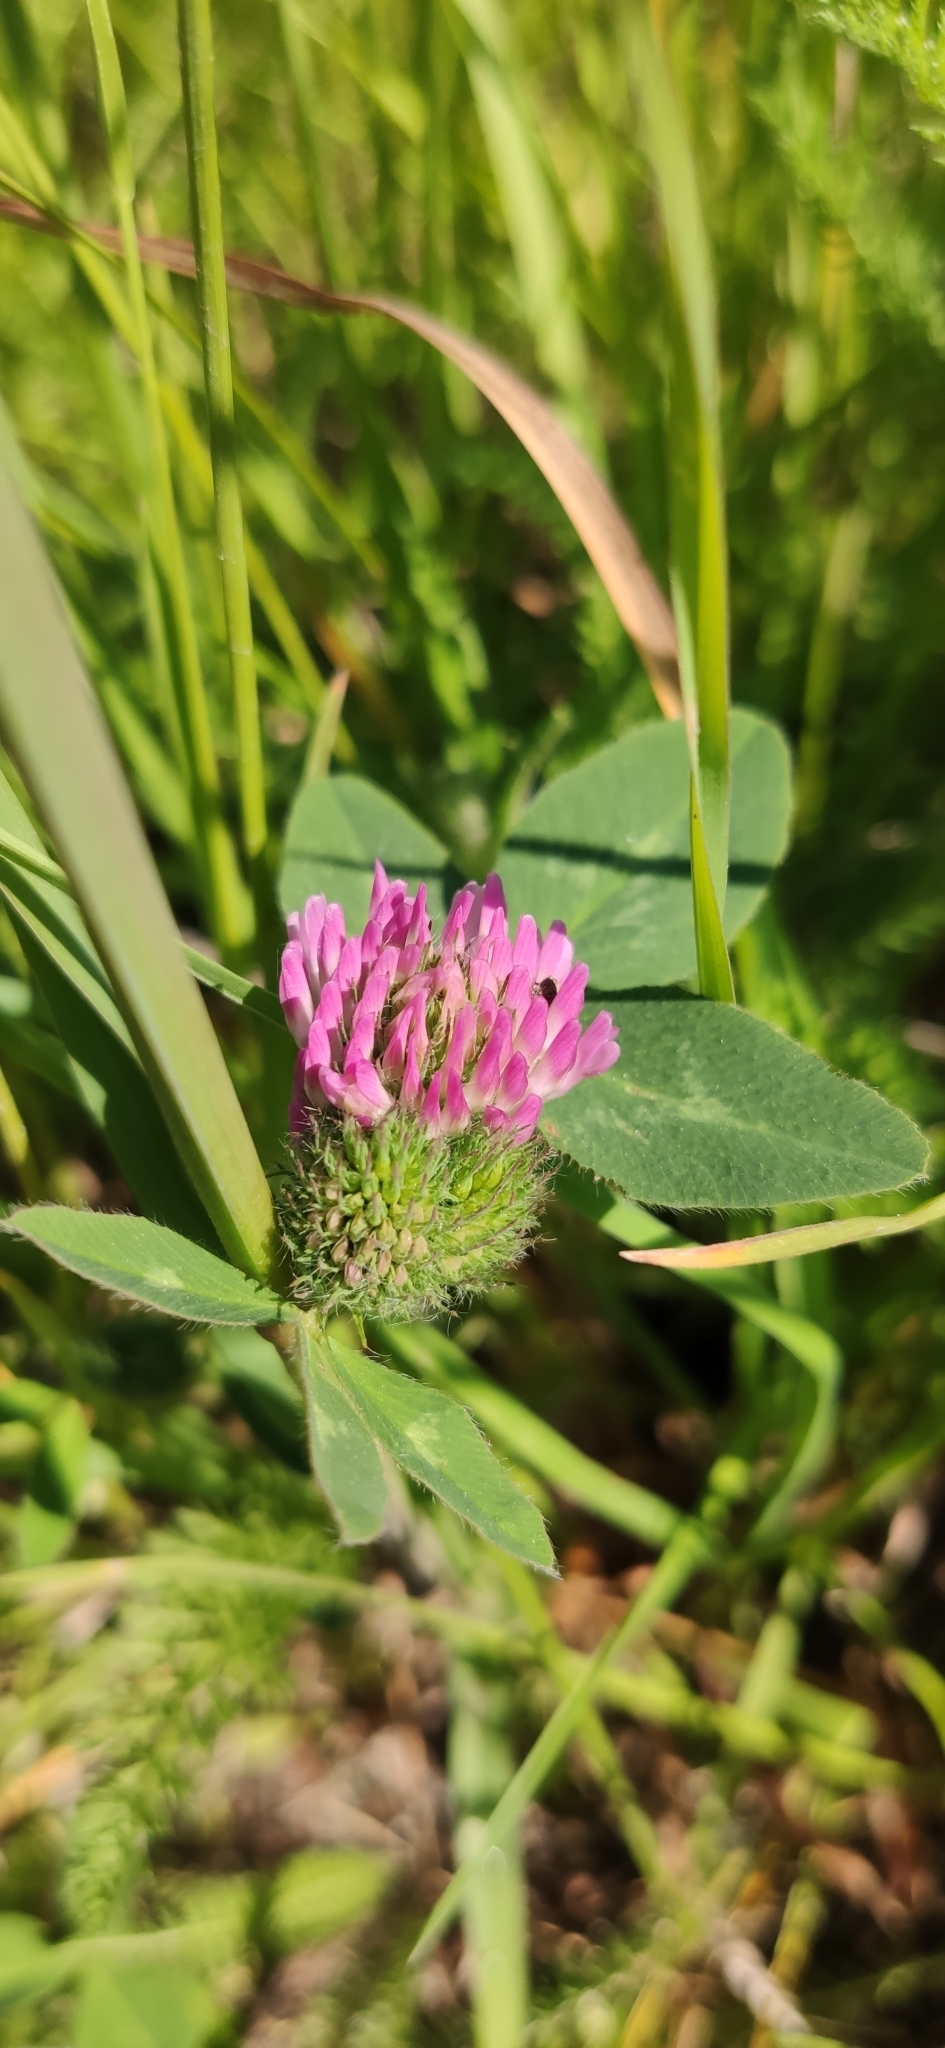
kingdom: Plantae
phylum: Tracheophyta
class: Magnoliopsida
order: Fabales
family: Fabaceae
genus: Trifolium
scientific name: Trifolium pratense
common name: Red clover
